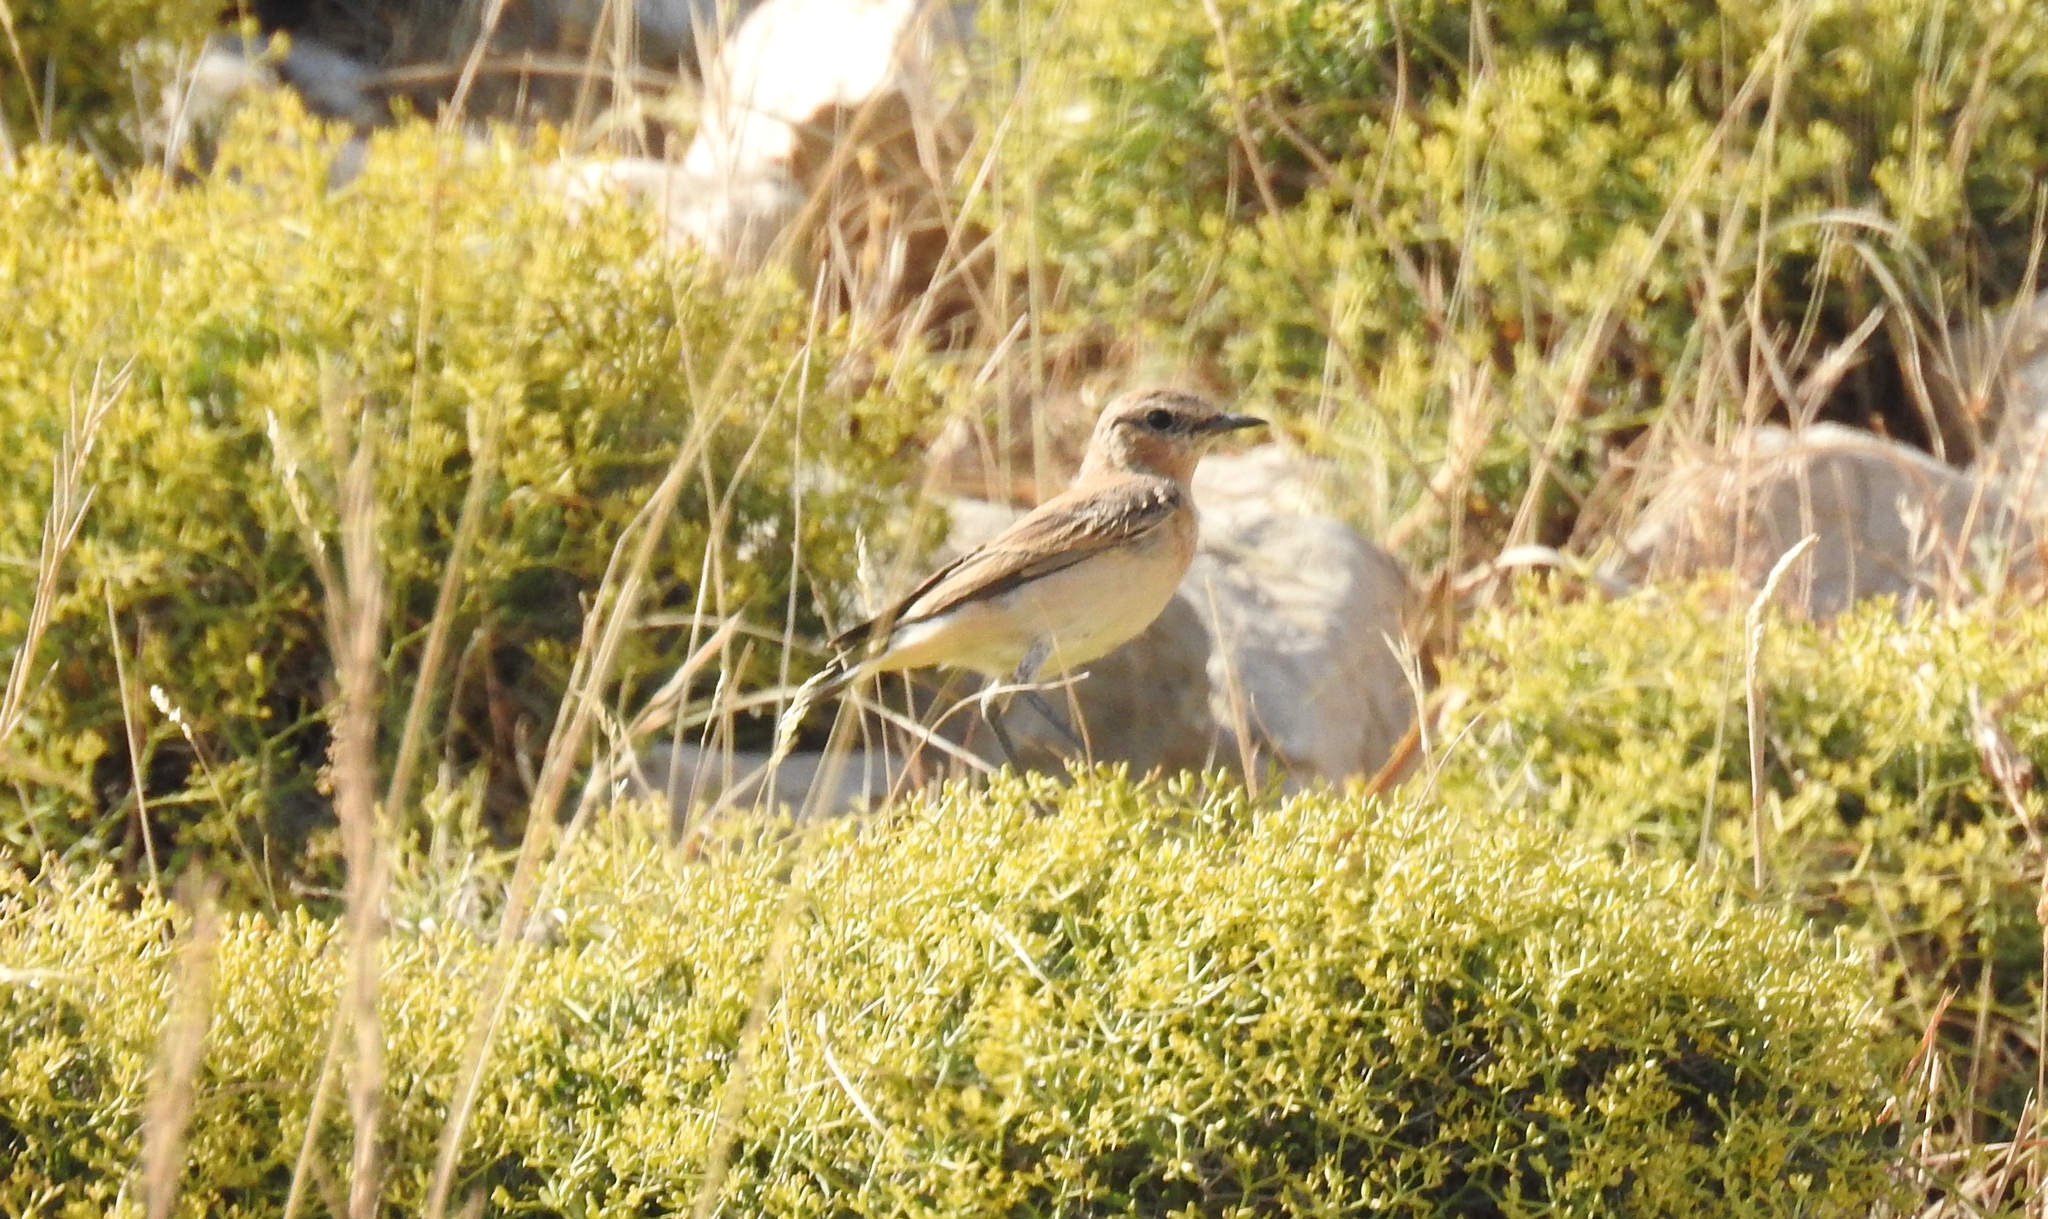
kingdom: Animalia
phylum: Chordata
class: Aves
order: Passeriformes
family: Muscicapidae
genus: Oenanthe
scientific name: Oenanthe oenanthe
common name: Northern wheatear
